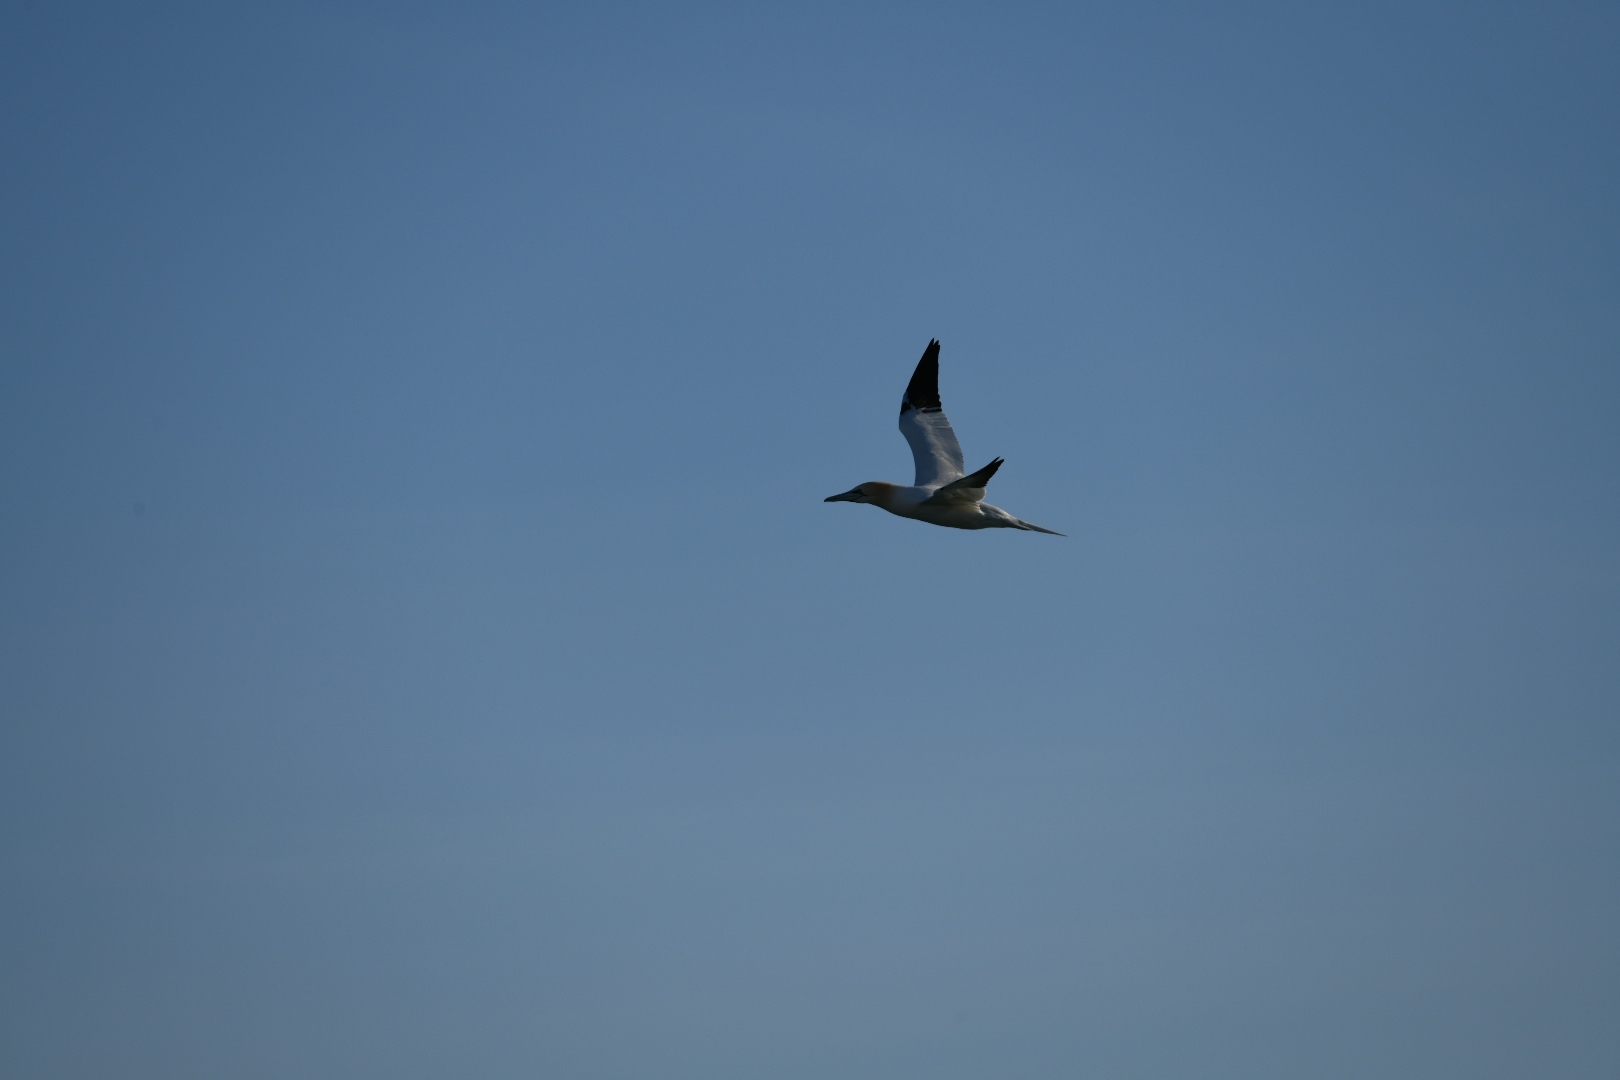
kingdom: Animalia
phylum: Chordata
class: Aves
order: Suliformes
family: Sulidae
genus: Morus
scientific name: Morus bassanus
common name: Northern gannet
